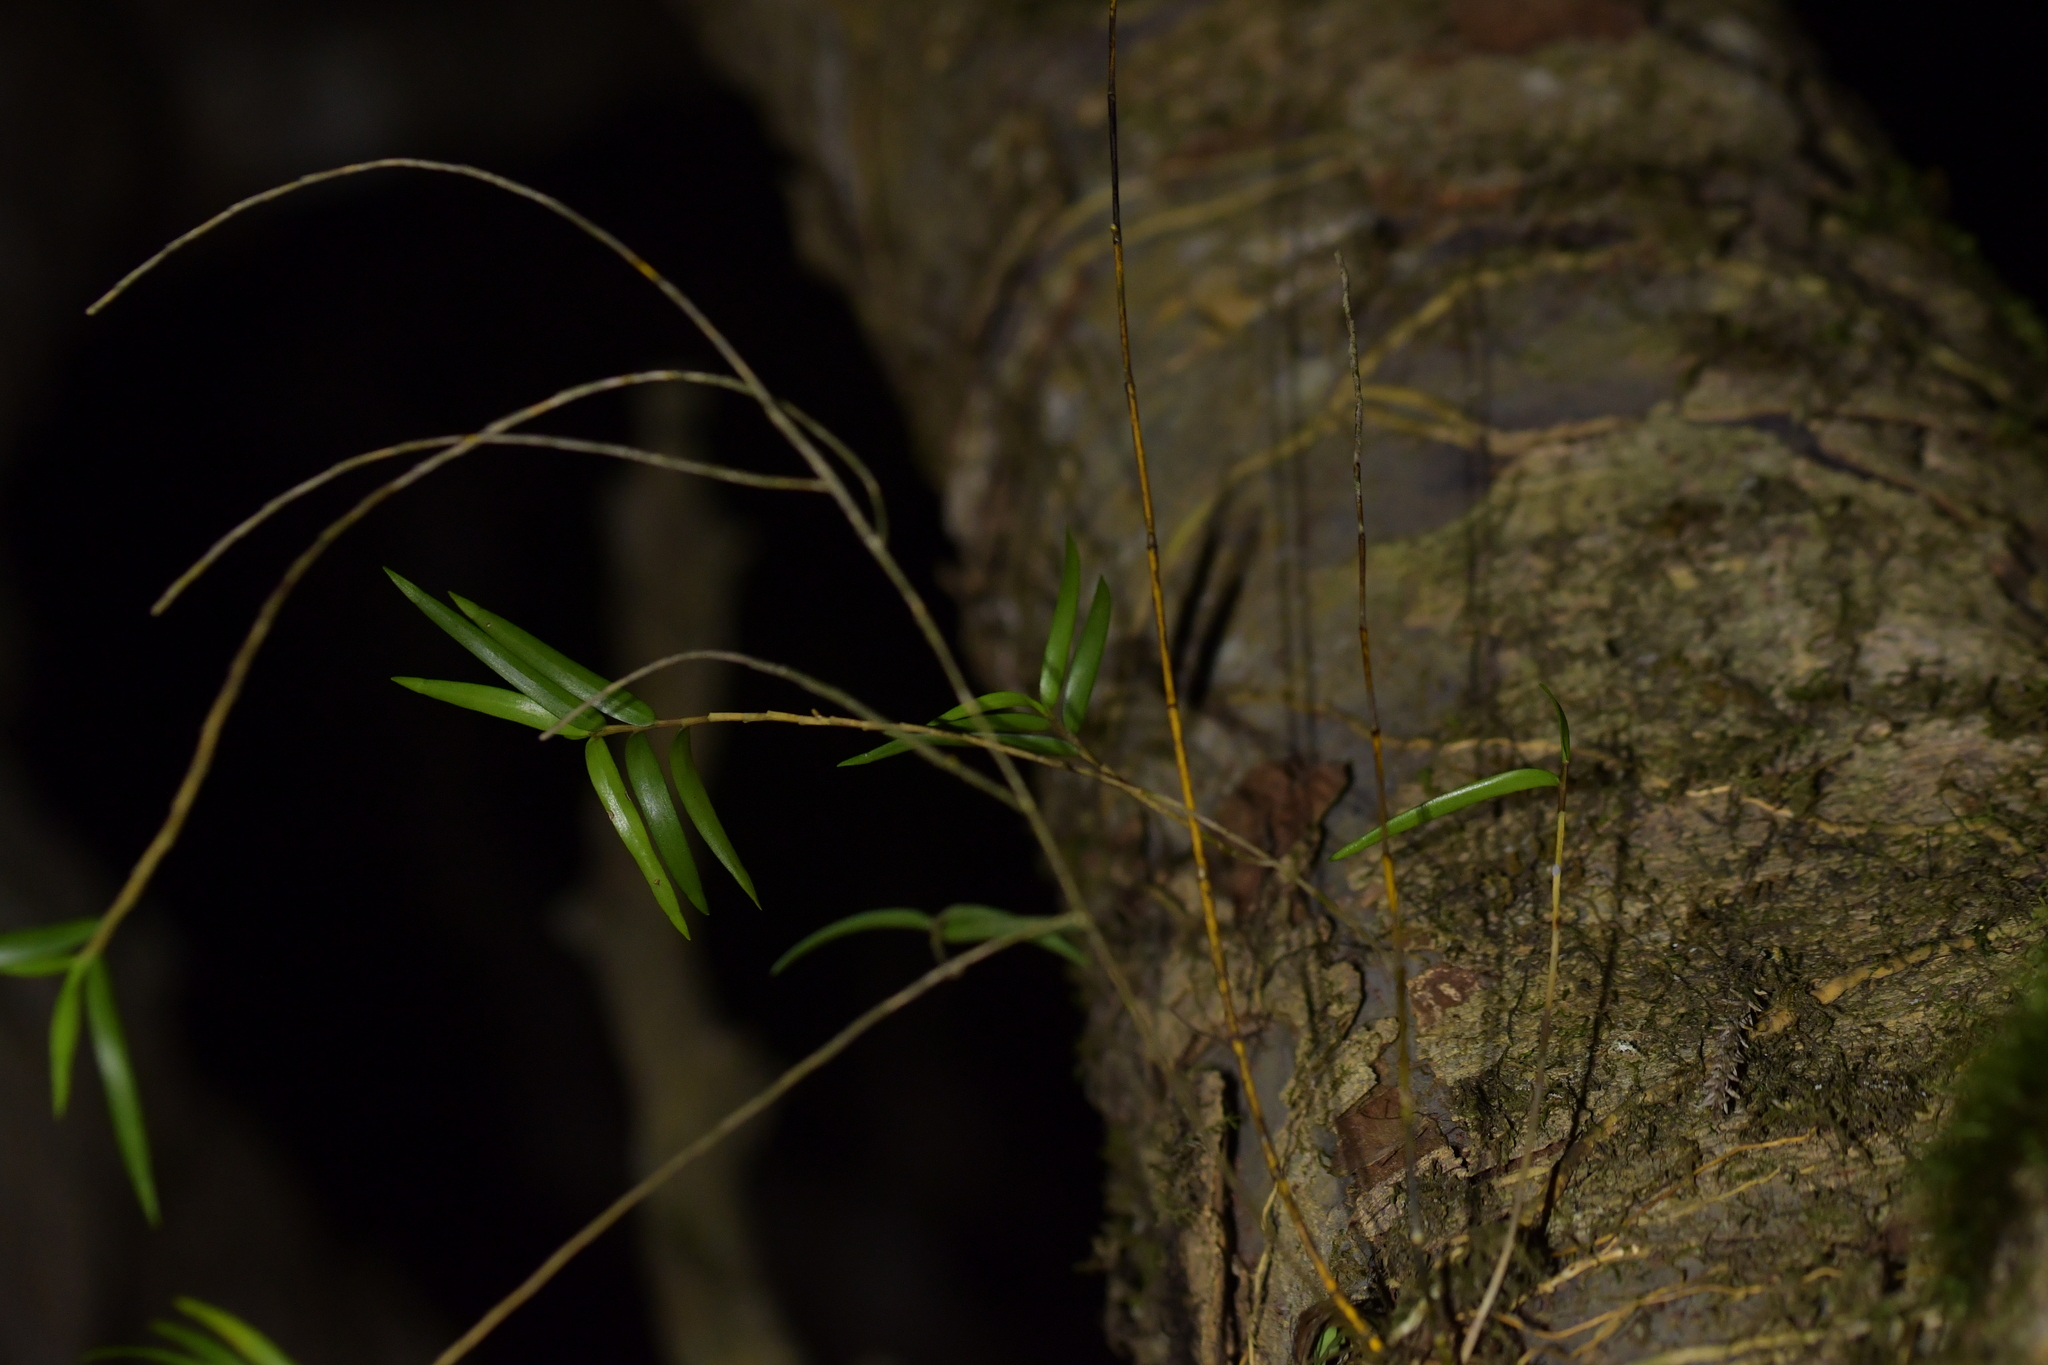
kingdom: Plantae
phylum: Tracheophyta
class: Liliopsida
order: Asparagales
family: Orchidaceae
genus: Dendrobium
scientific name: Dendrobium cunninghamii
